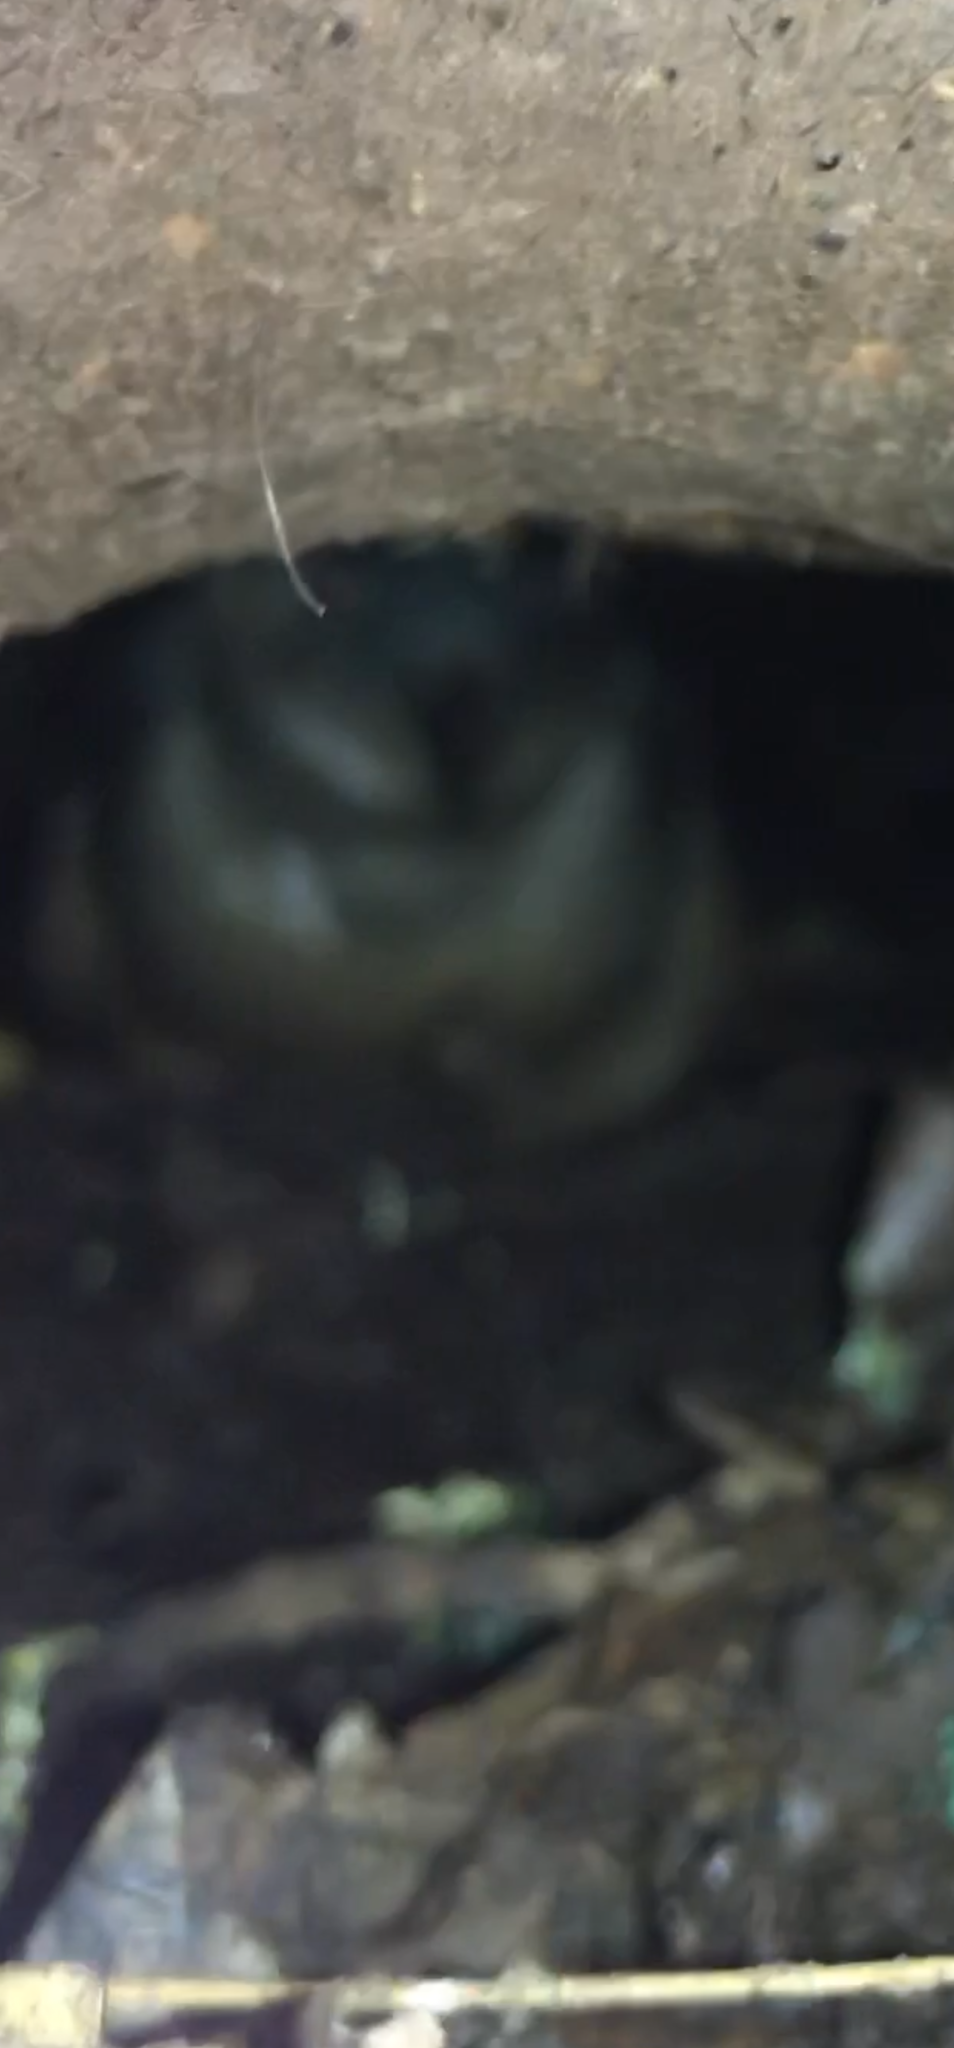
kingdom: Animalia
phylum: Chordata
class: Aves
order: Sphenisciformes
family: Spheniscidae
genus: Eudyptula
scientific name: Eudyptula minor
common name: Little penguin
